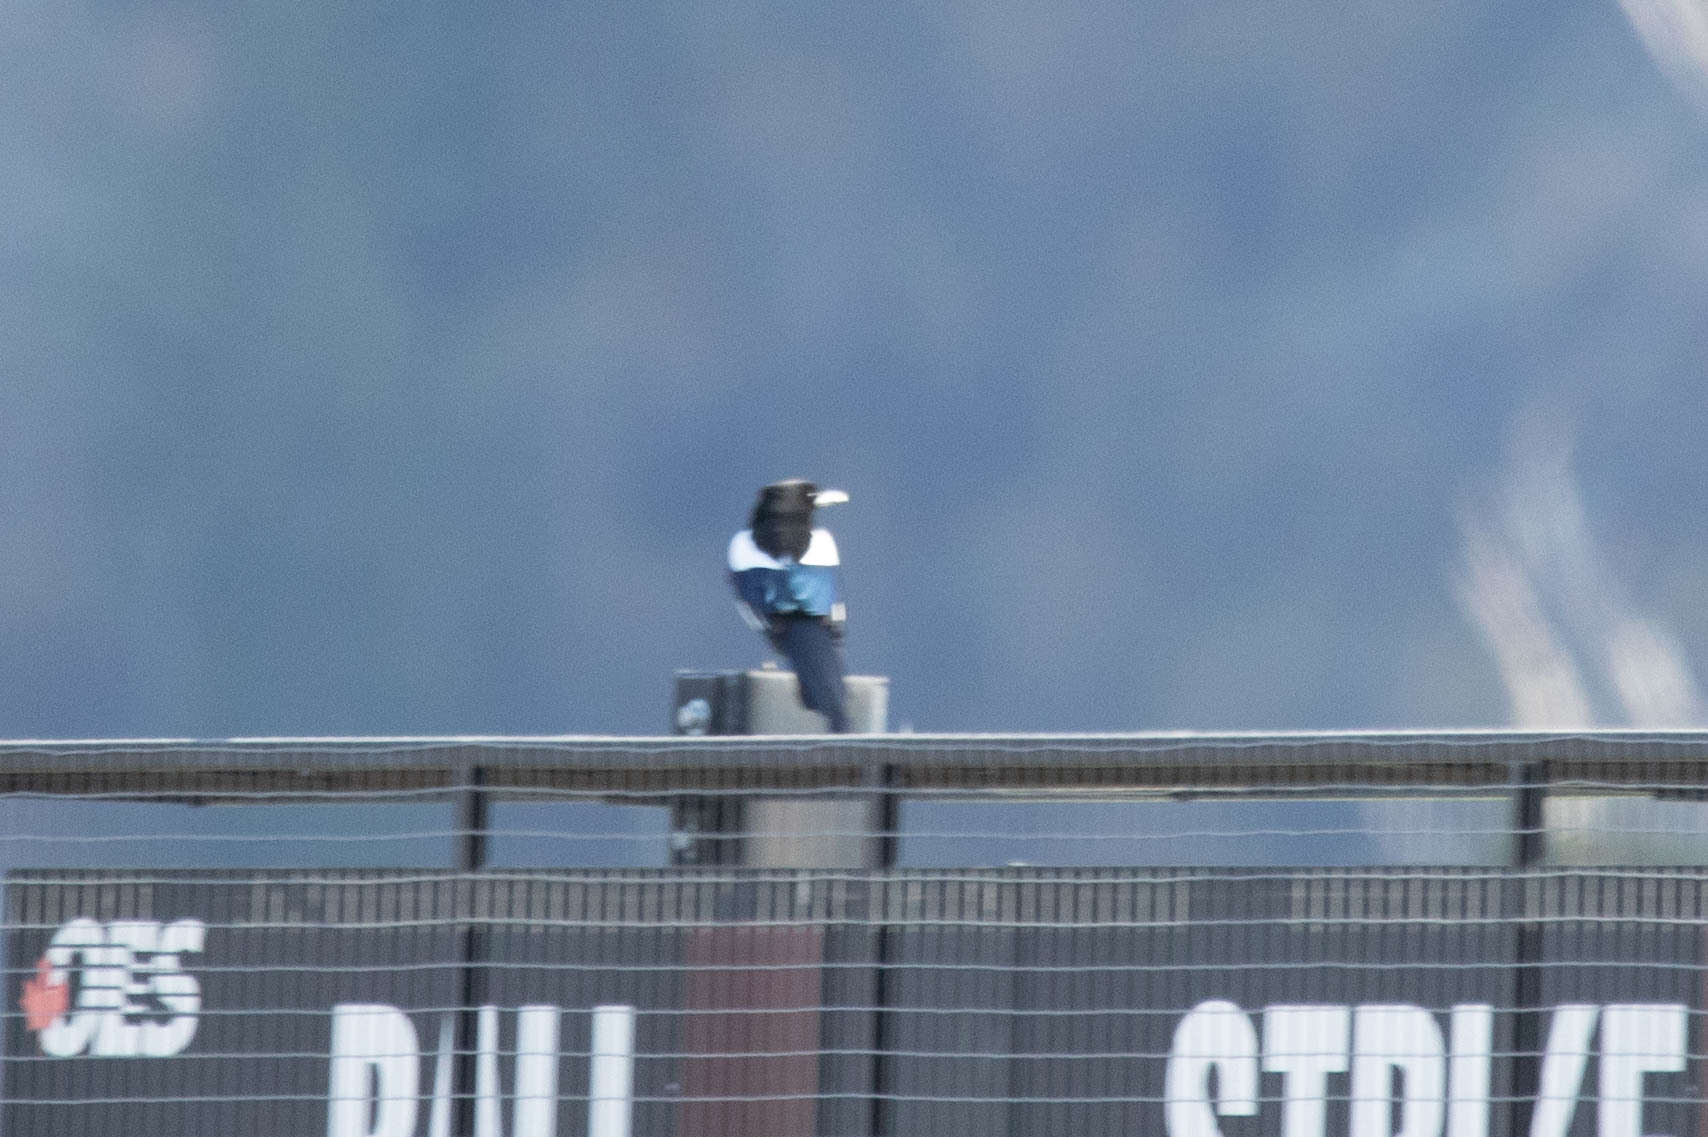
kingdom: Animalia
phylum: Chordata
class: Aves
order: Passeriformes
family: Corvidae
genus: Pica
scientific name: Pica hudsonia
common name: Black-billed magpie
